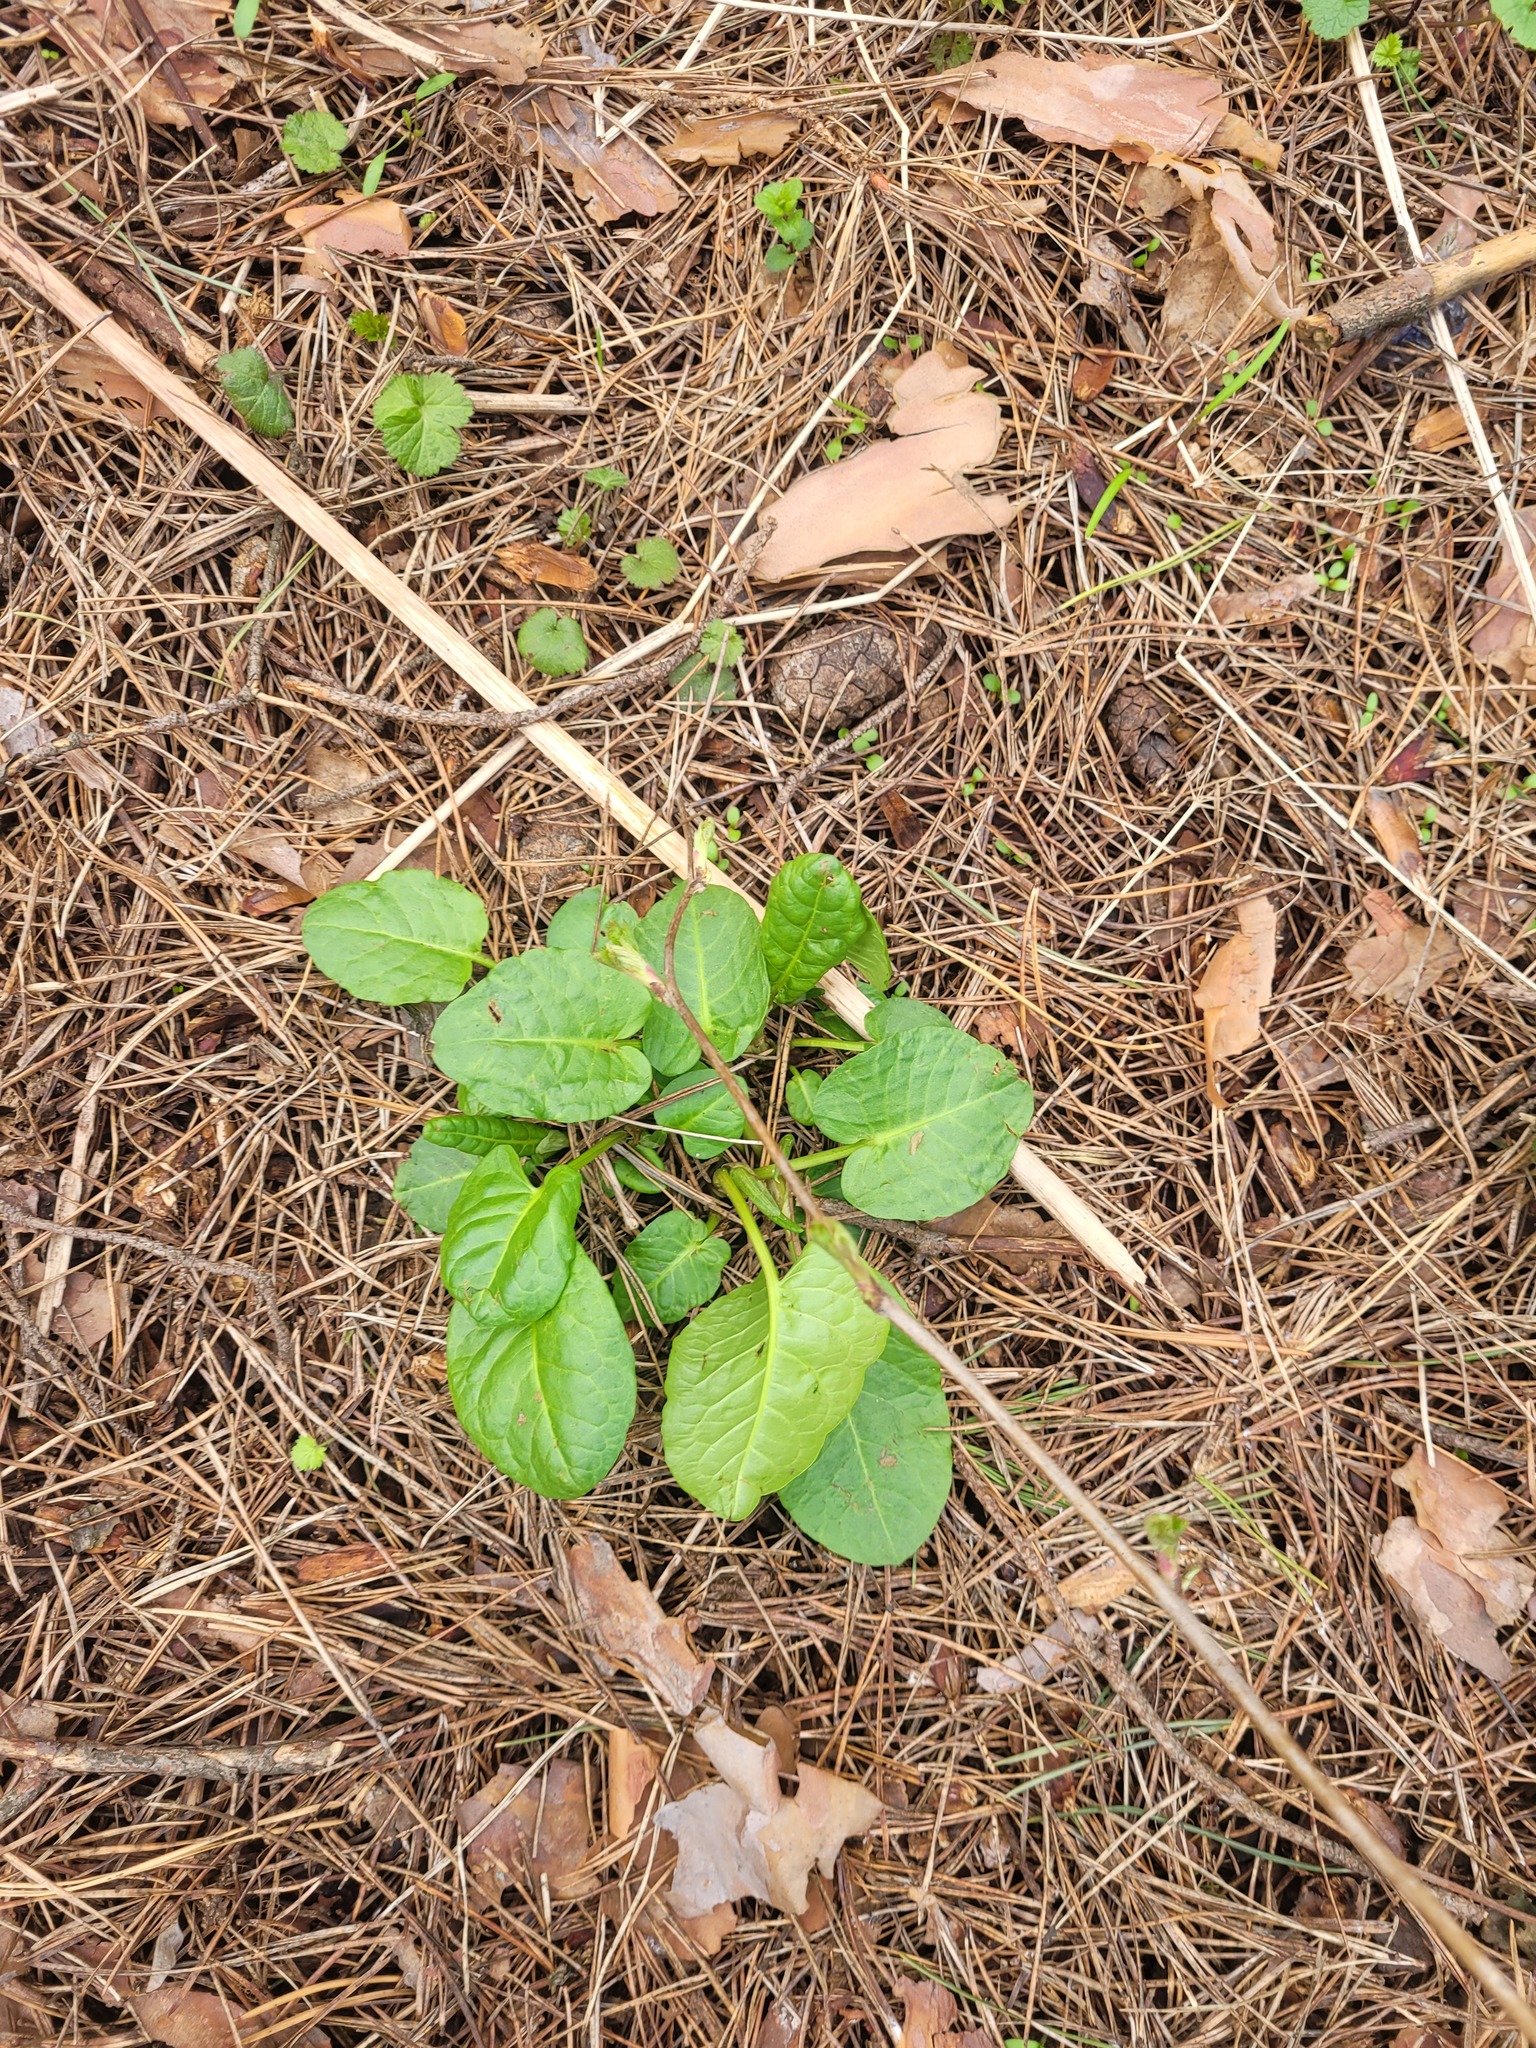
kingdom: Plantae
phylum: Tracheophyta
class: Magnoliopsida
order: Caryophyllales
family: Polygonaceae
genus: Rumex
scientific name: Rumex obtusifolius
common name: Bitter dock
